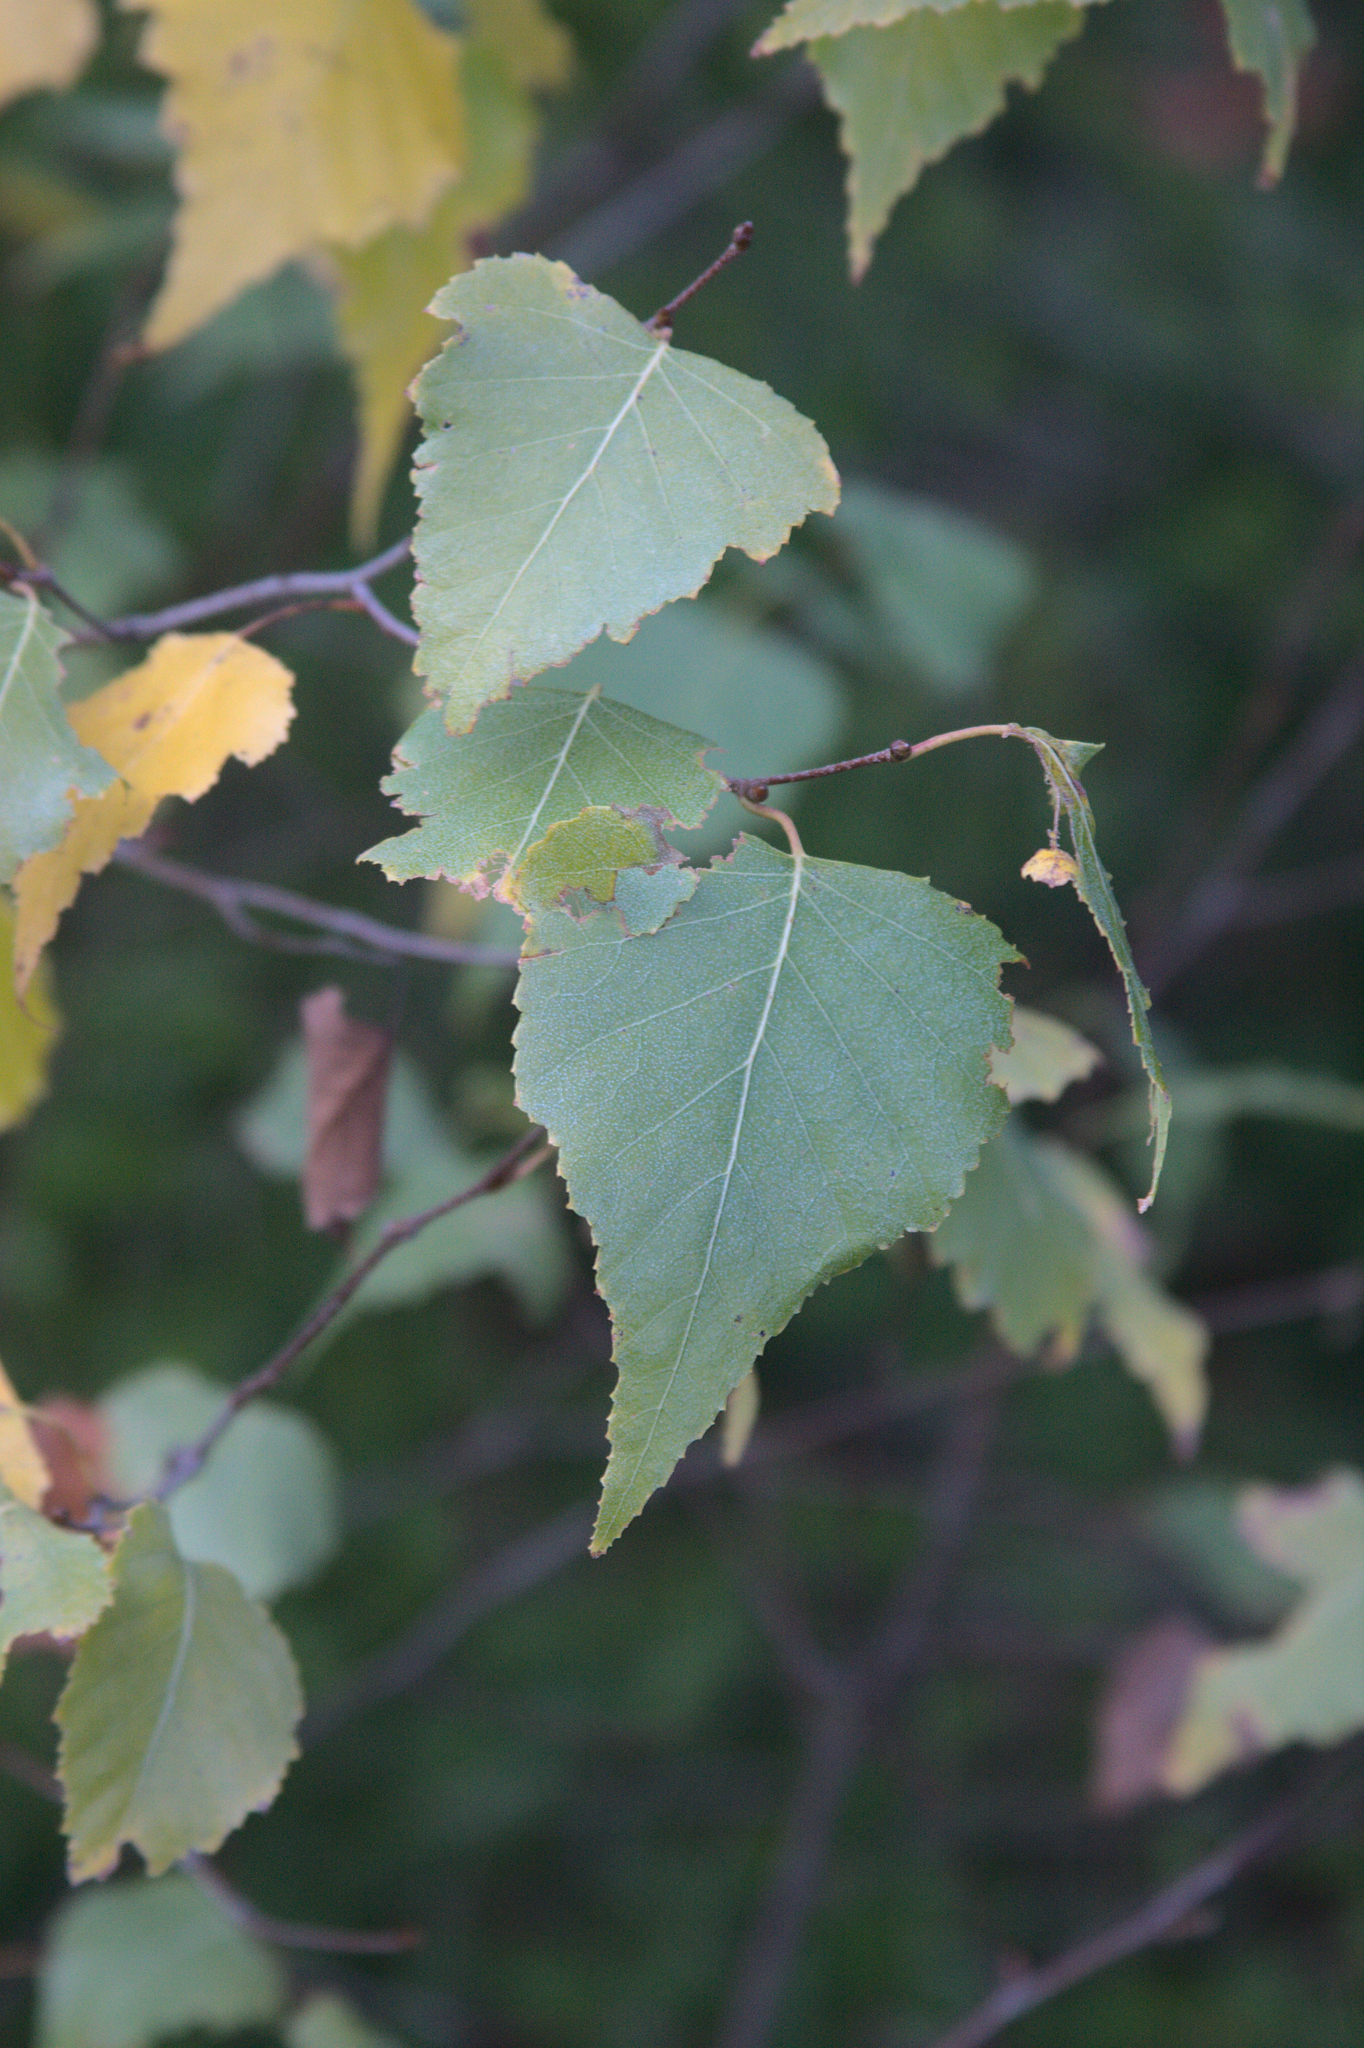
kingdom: Plantae
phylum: Tracheophyta
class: Magnoliopsida
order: Fagales
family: Betulaceae
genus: Betula
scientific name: Betula populifolia
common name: Fire birch
